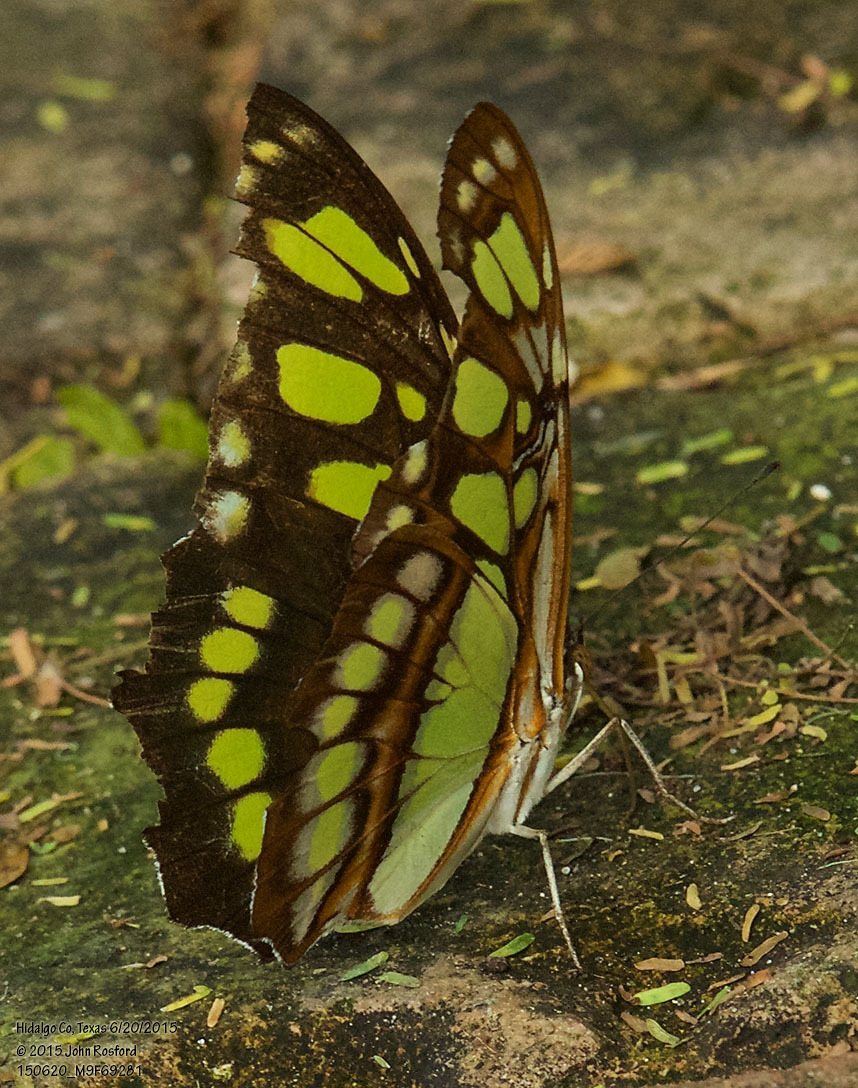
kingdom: Animalia
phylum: Arthropoda
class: Insecta
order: Lepidoptera
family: Nymphalidae
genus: Siproeta
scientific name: Siproeta stelenes
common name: Malachite
